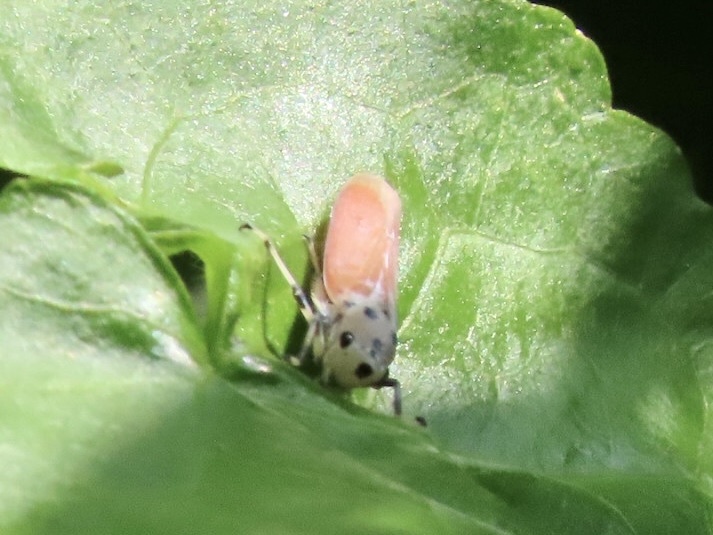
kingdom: Animalia
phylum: Arthropoda
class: Insecta
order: Hemiptera
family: Cicadellidae
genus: Bothrogonia
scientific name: Bothrogonia ferruginea
